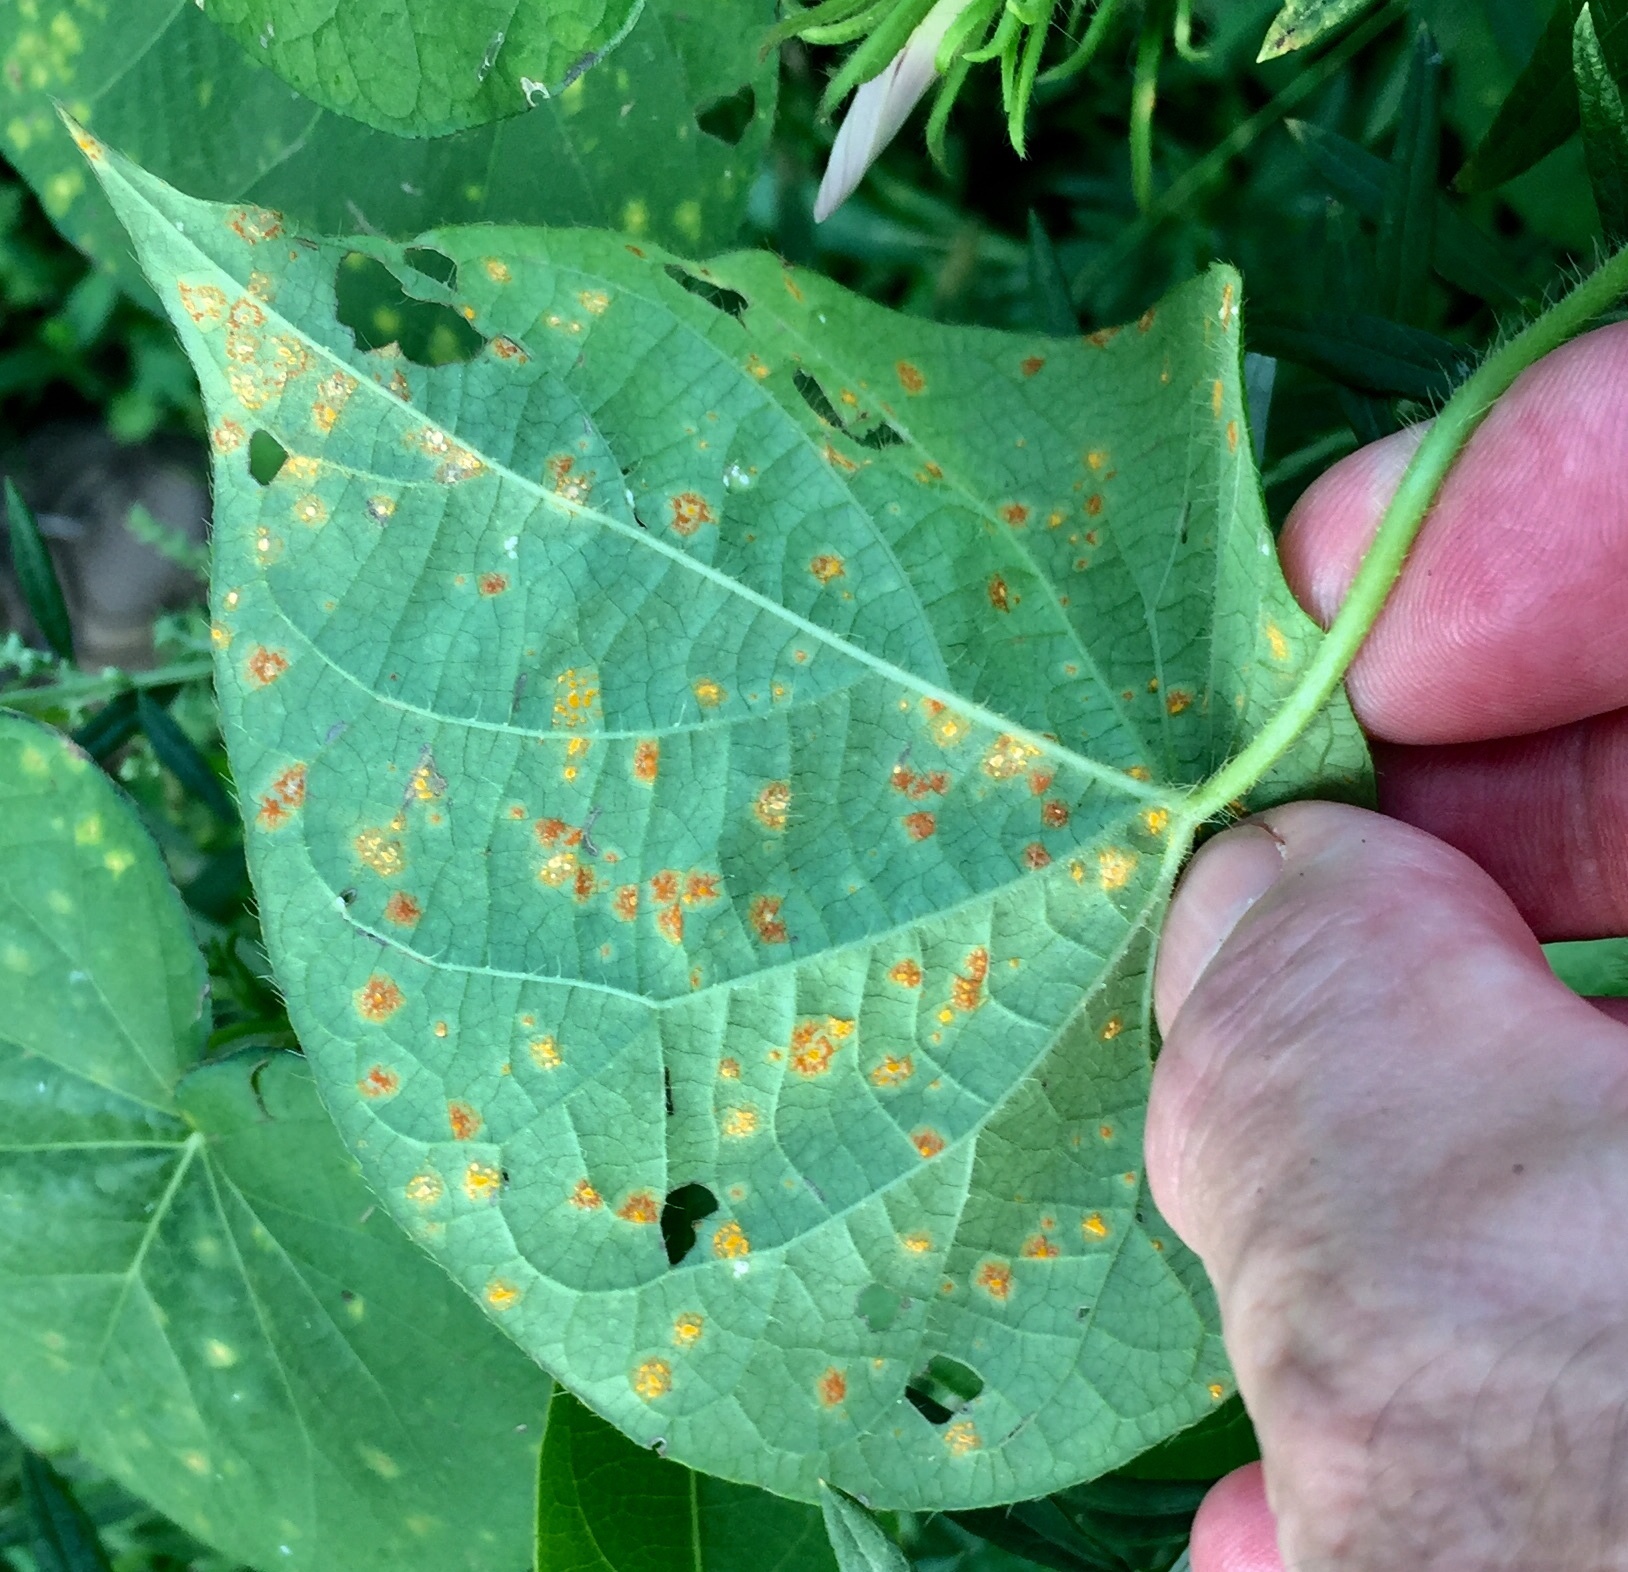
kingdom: Fungi
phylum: Basidiomycota
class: Pucciniomycetes
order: Pucciniales
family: Coleosporiaceae
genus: Coleosporium
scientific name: Coleosporium ipomoeae
